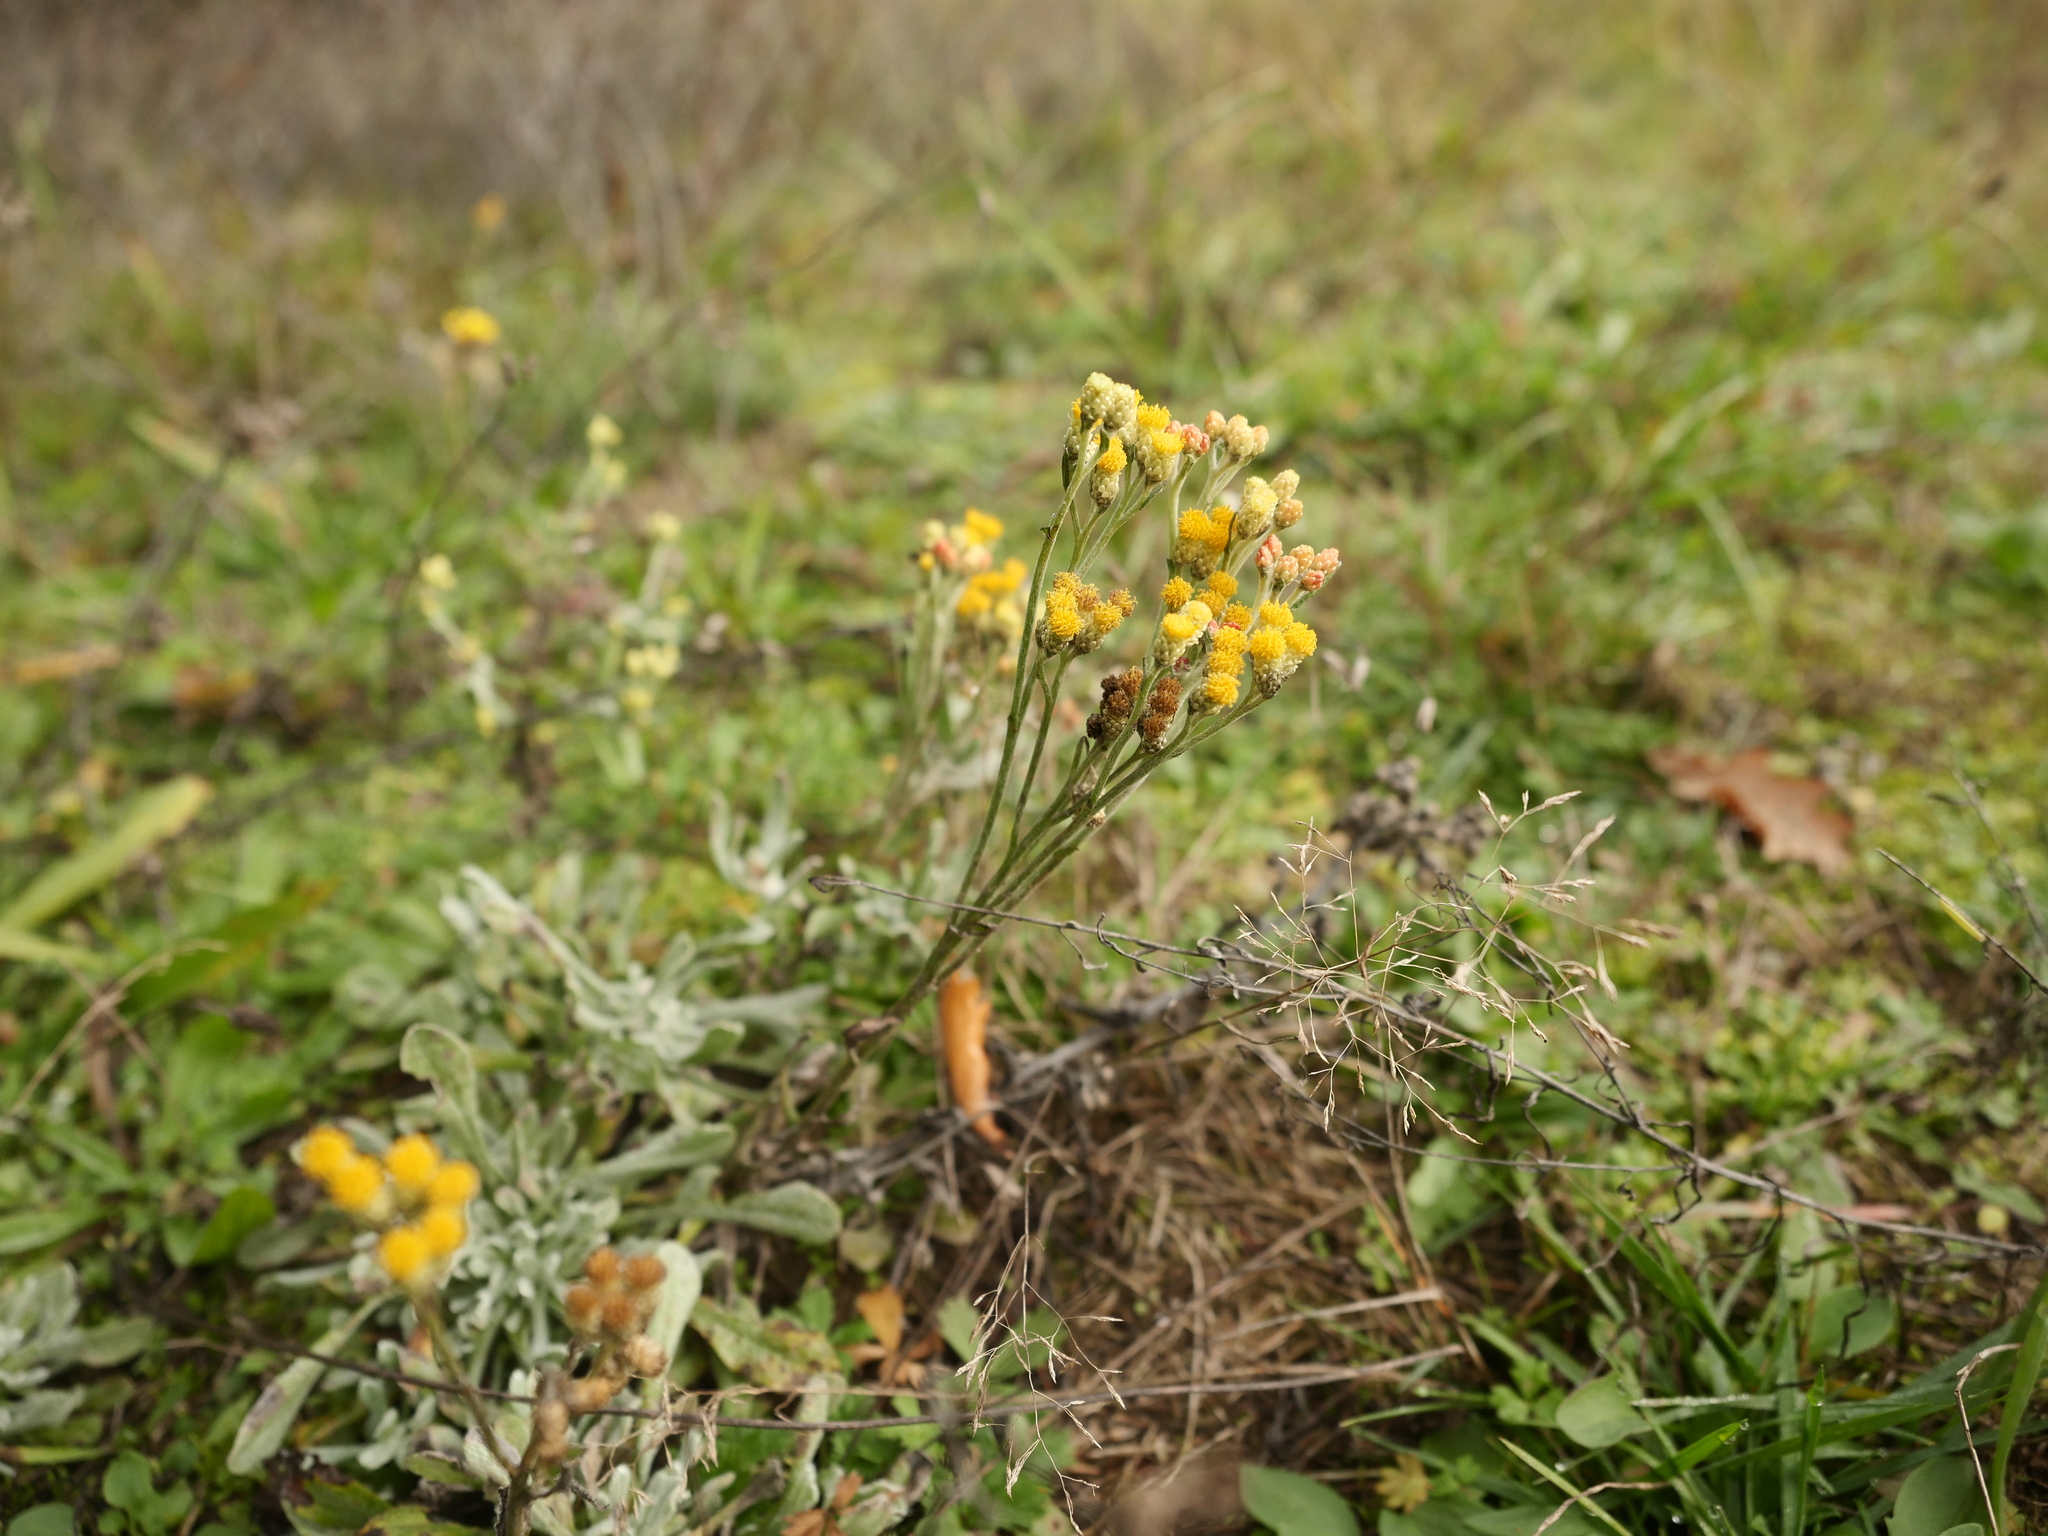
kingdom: Plantae
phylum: Tracheophyta
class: Magnoliopsida
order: Asterales
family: Asteraceae
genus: Helichrysum
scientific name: Helichrysum arenarium
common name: Strawflower
